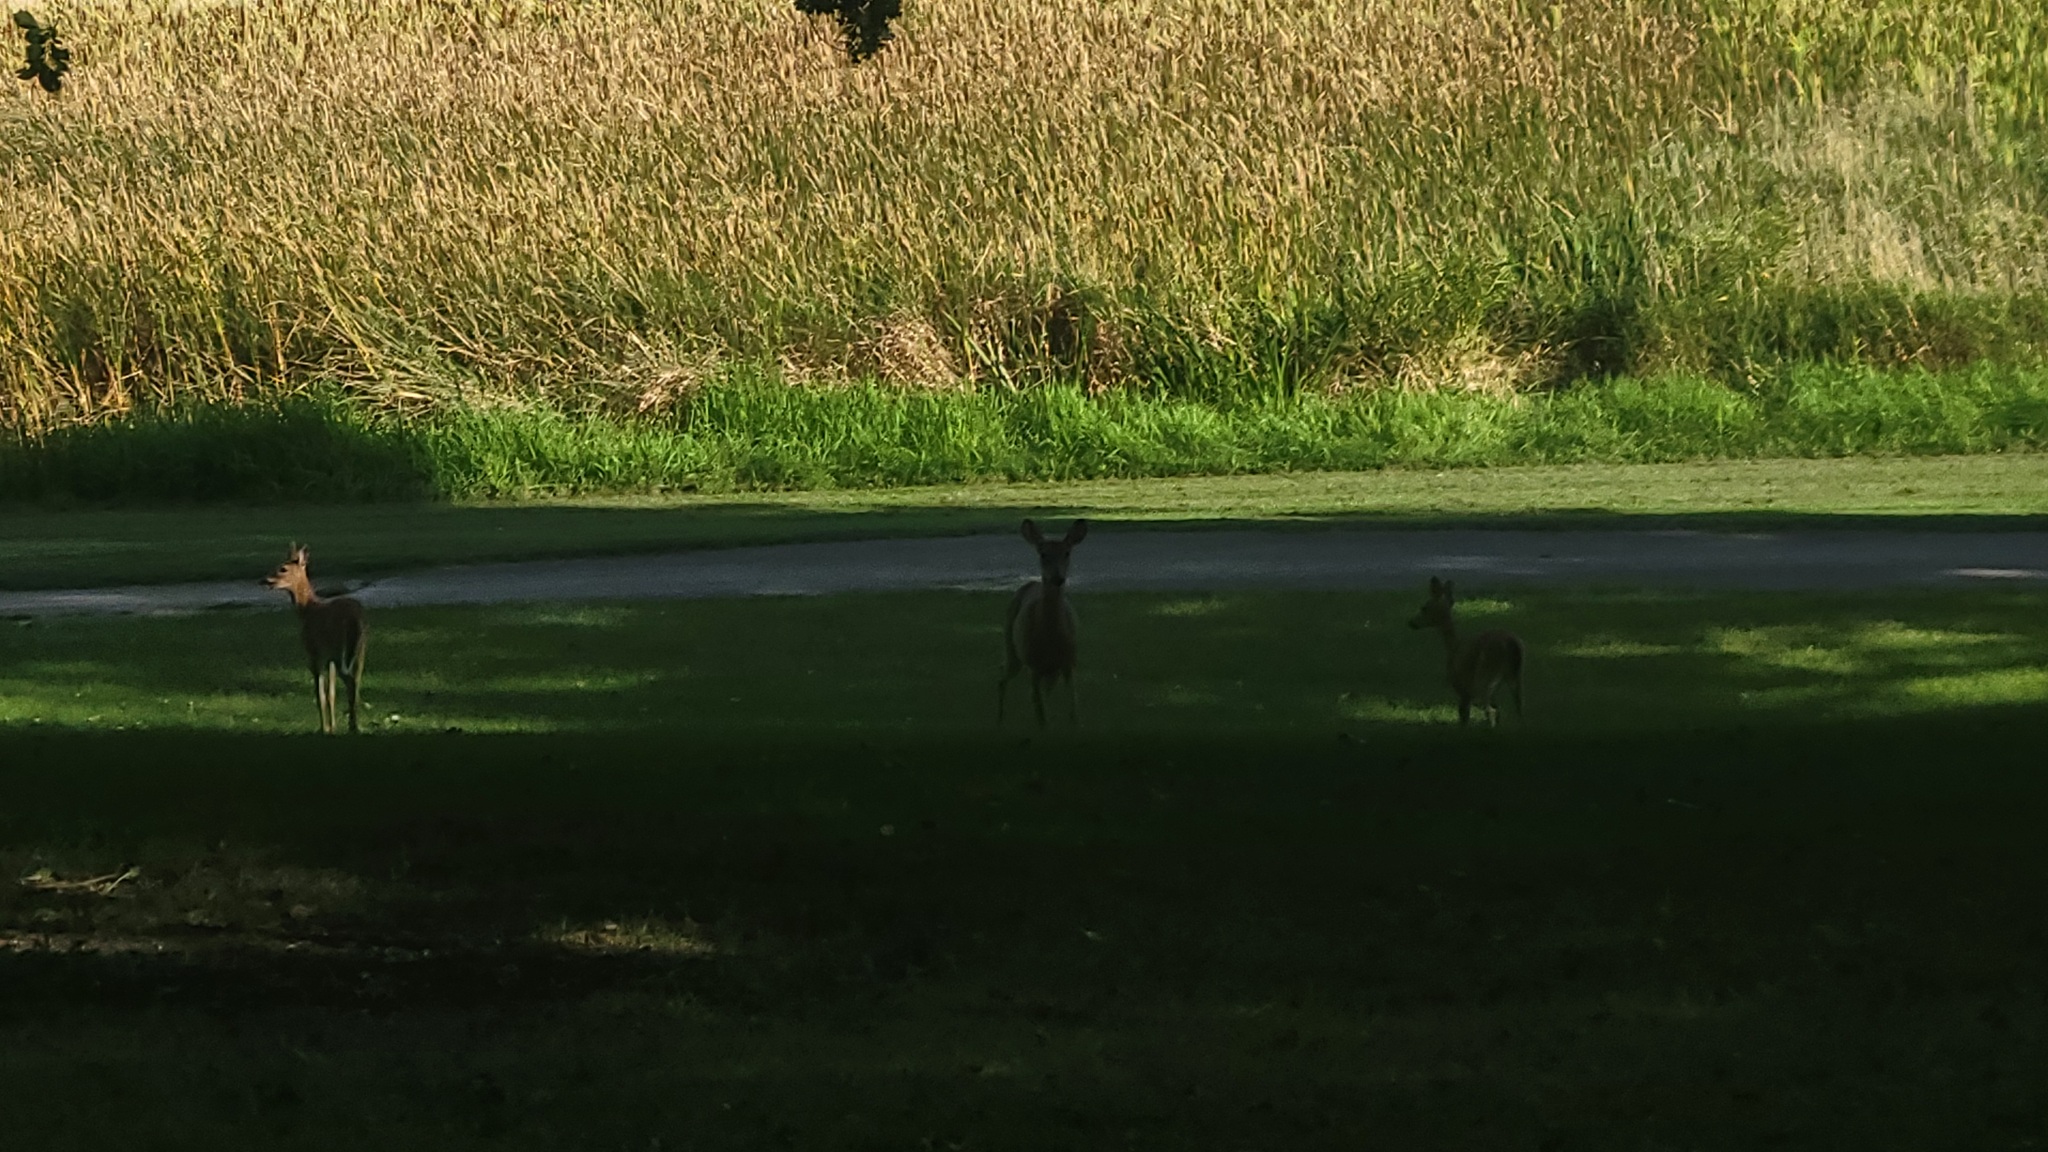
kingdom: Animalia
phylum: Chordata
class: Mammalia
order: Artiodactyla
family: Cervidae
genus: Odocoileus
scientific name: Odocoileus virginianus
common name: White-tailed deer
